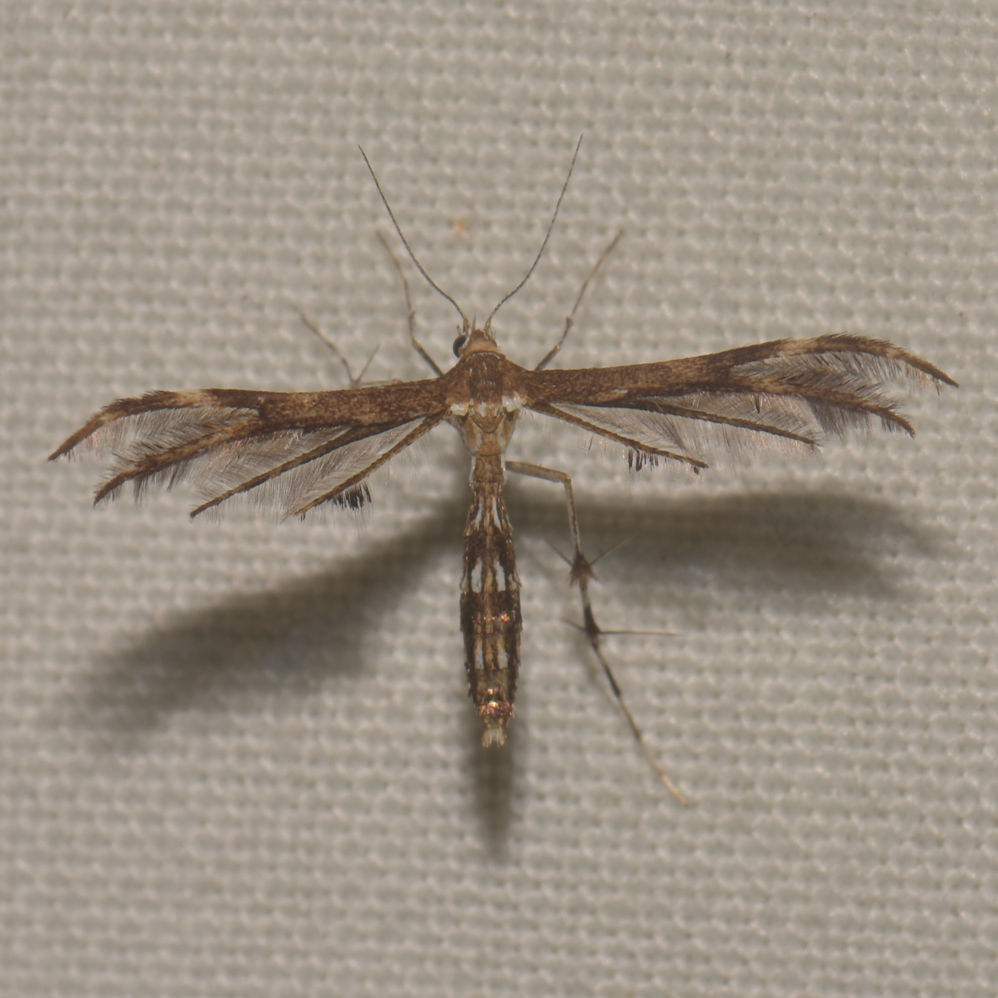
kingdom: Animalia
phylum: Arthropoda
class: Insecta
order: Lepidoptera
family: Pterophoridae
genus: Dejongia
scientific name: Dejongia lobidactylus
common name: Lobed plume moth
